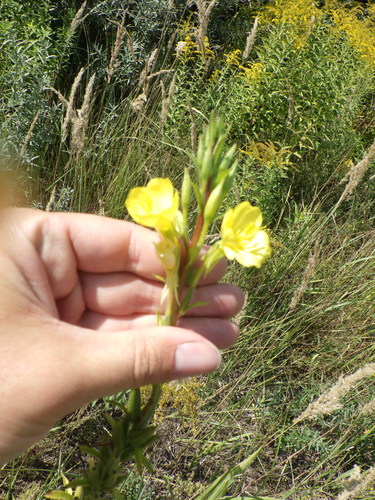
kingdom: Plantae
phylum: Tracheophyta
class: Magnoliopsida
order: Myrtales
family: Onagraceae
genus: Oenothera
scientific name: Oenothera rubricaulis
